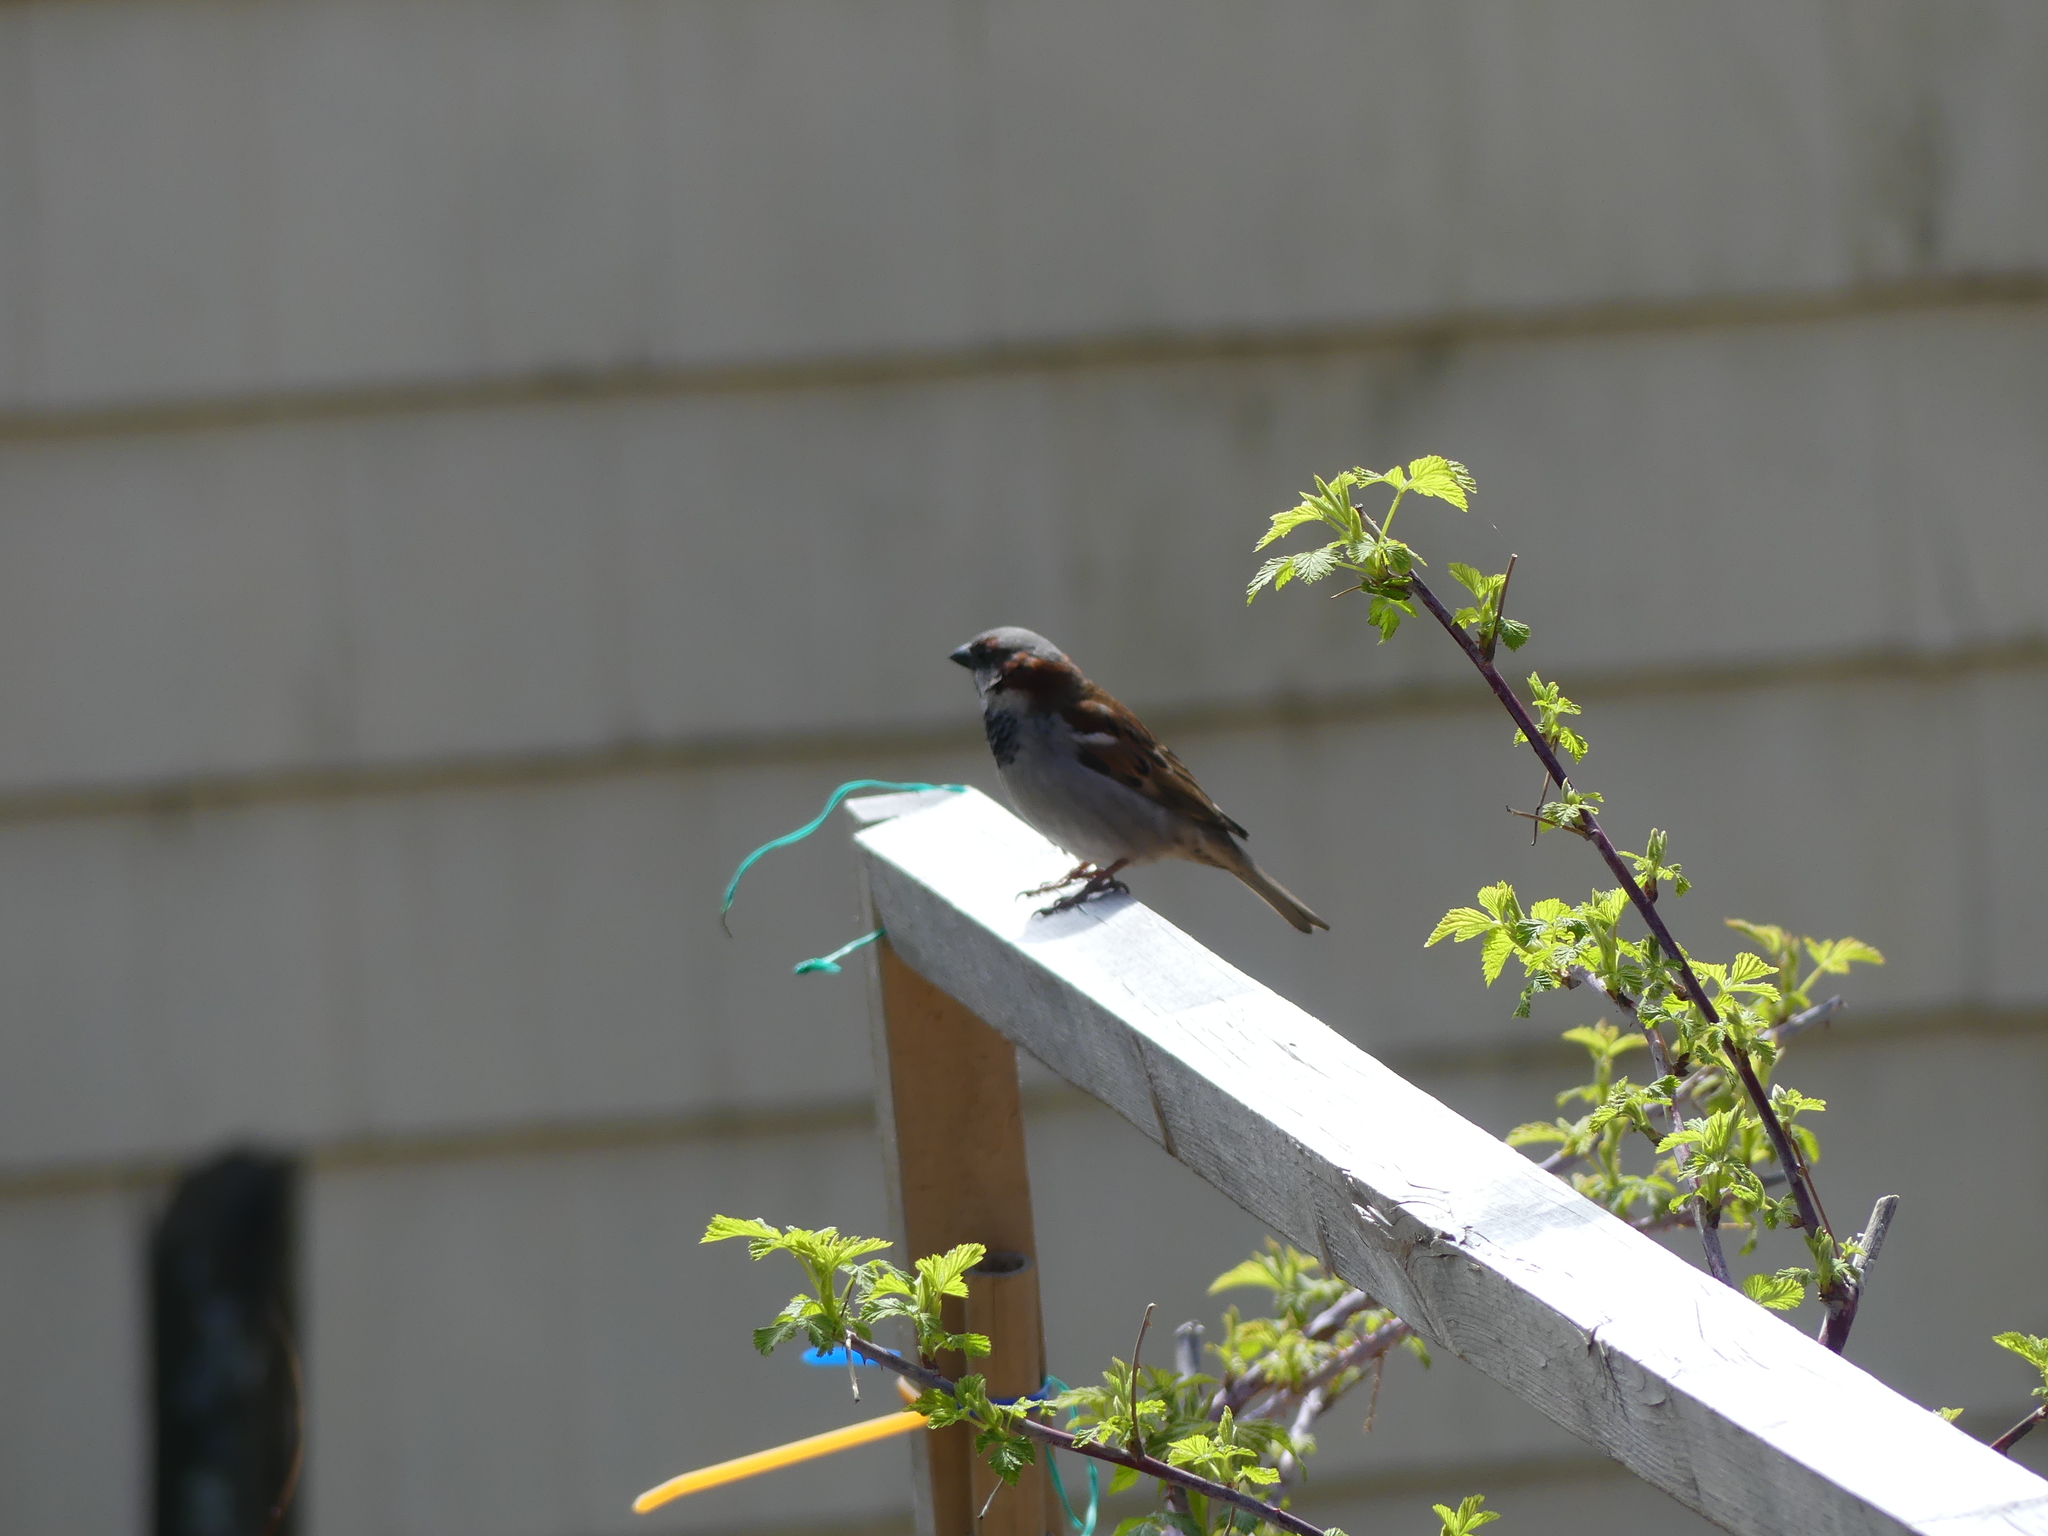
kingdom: Animalia
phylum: Chordata
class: Aves
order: Passeriformes
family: Passeridae
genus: Passer
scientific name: Passer domesticus
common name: House sparrow
